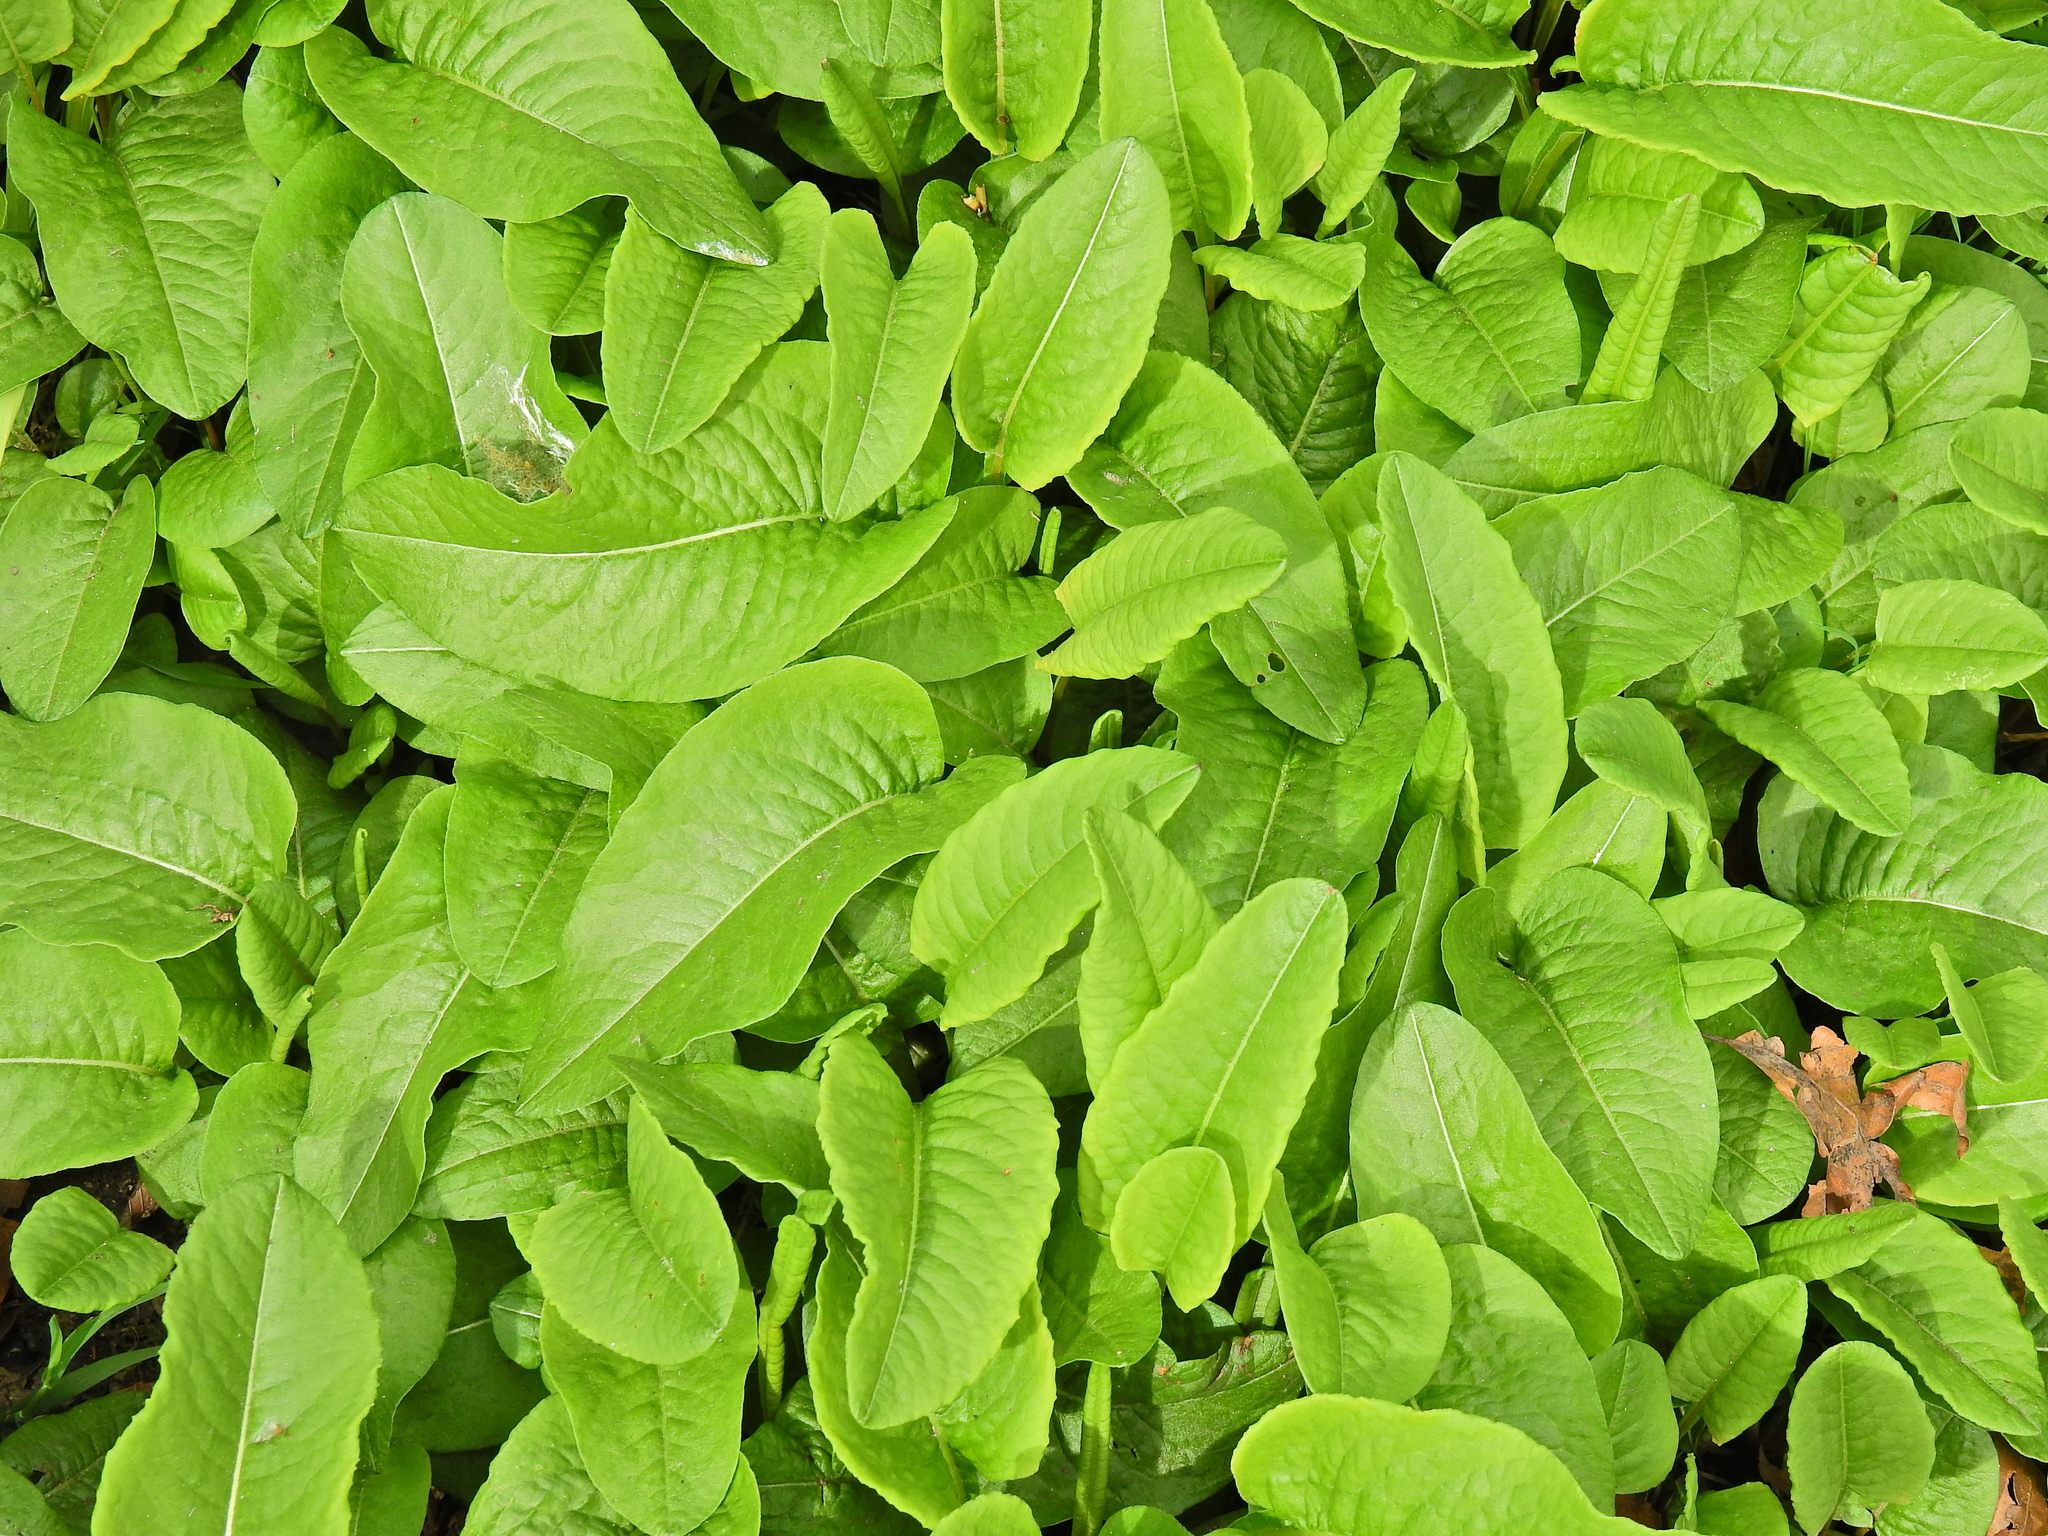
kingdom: Plantae
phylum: Tracheophyta
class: Magnoliopsida
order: Caryophyllales
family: Polygonaceae
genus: Bistorta
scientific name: Bistorta officinalis
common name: Common bistort
